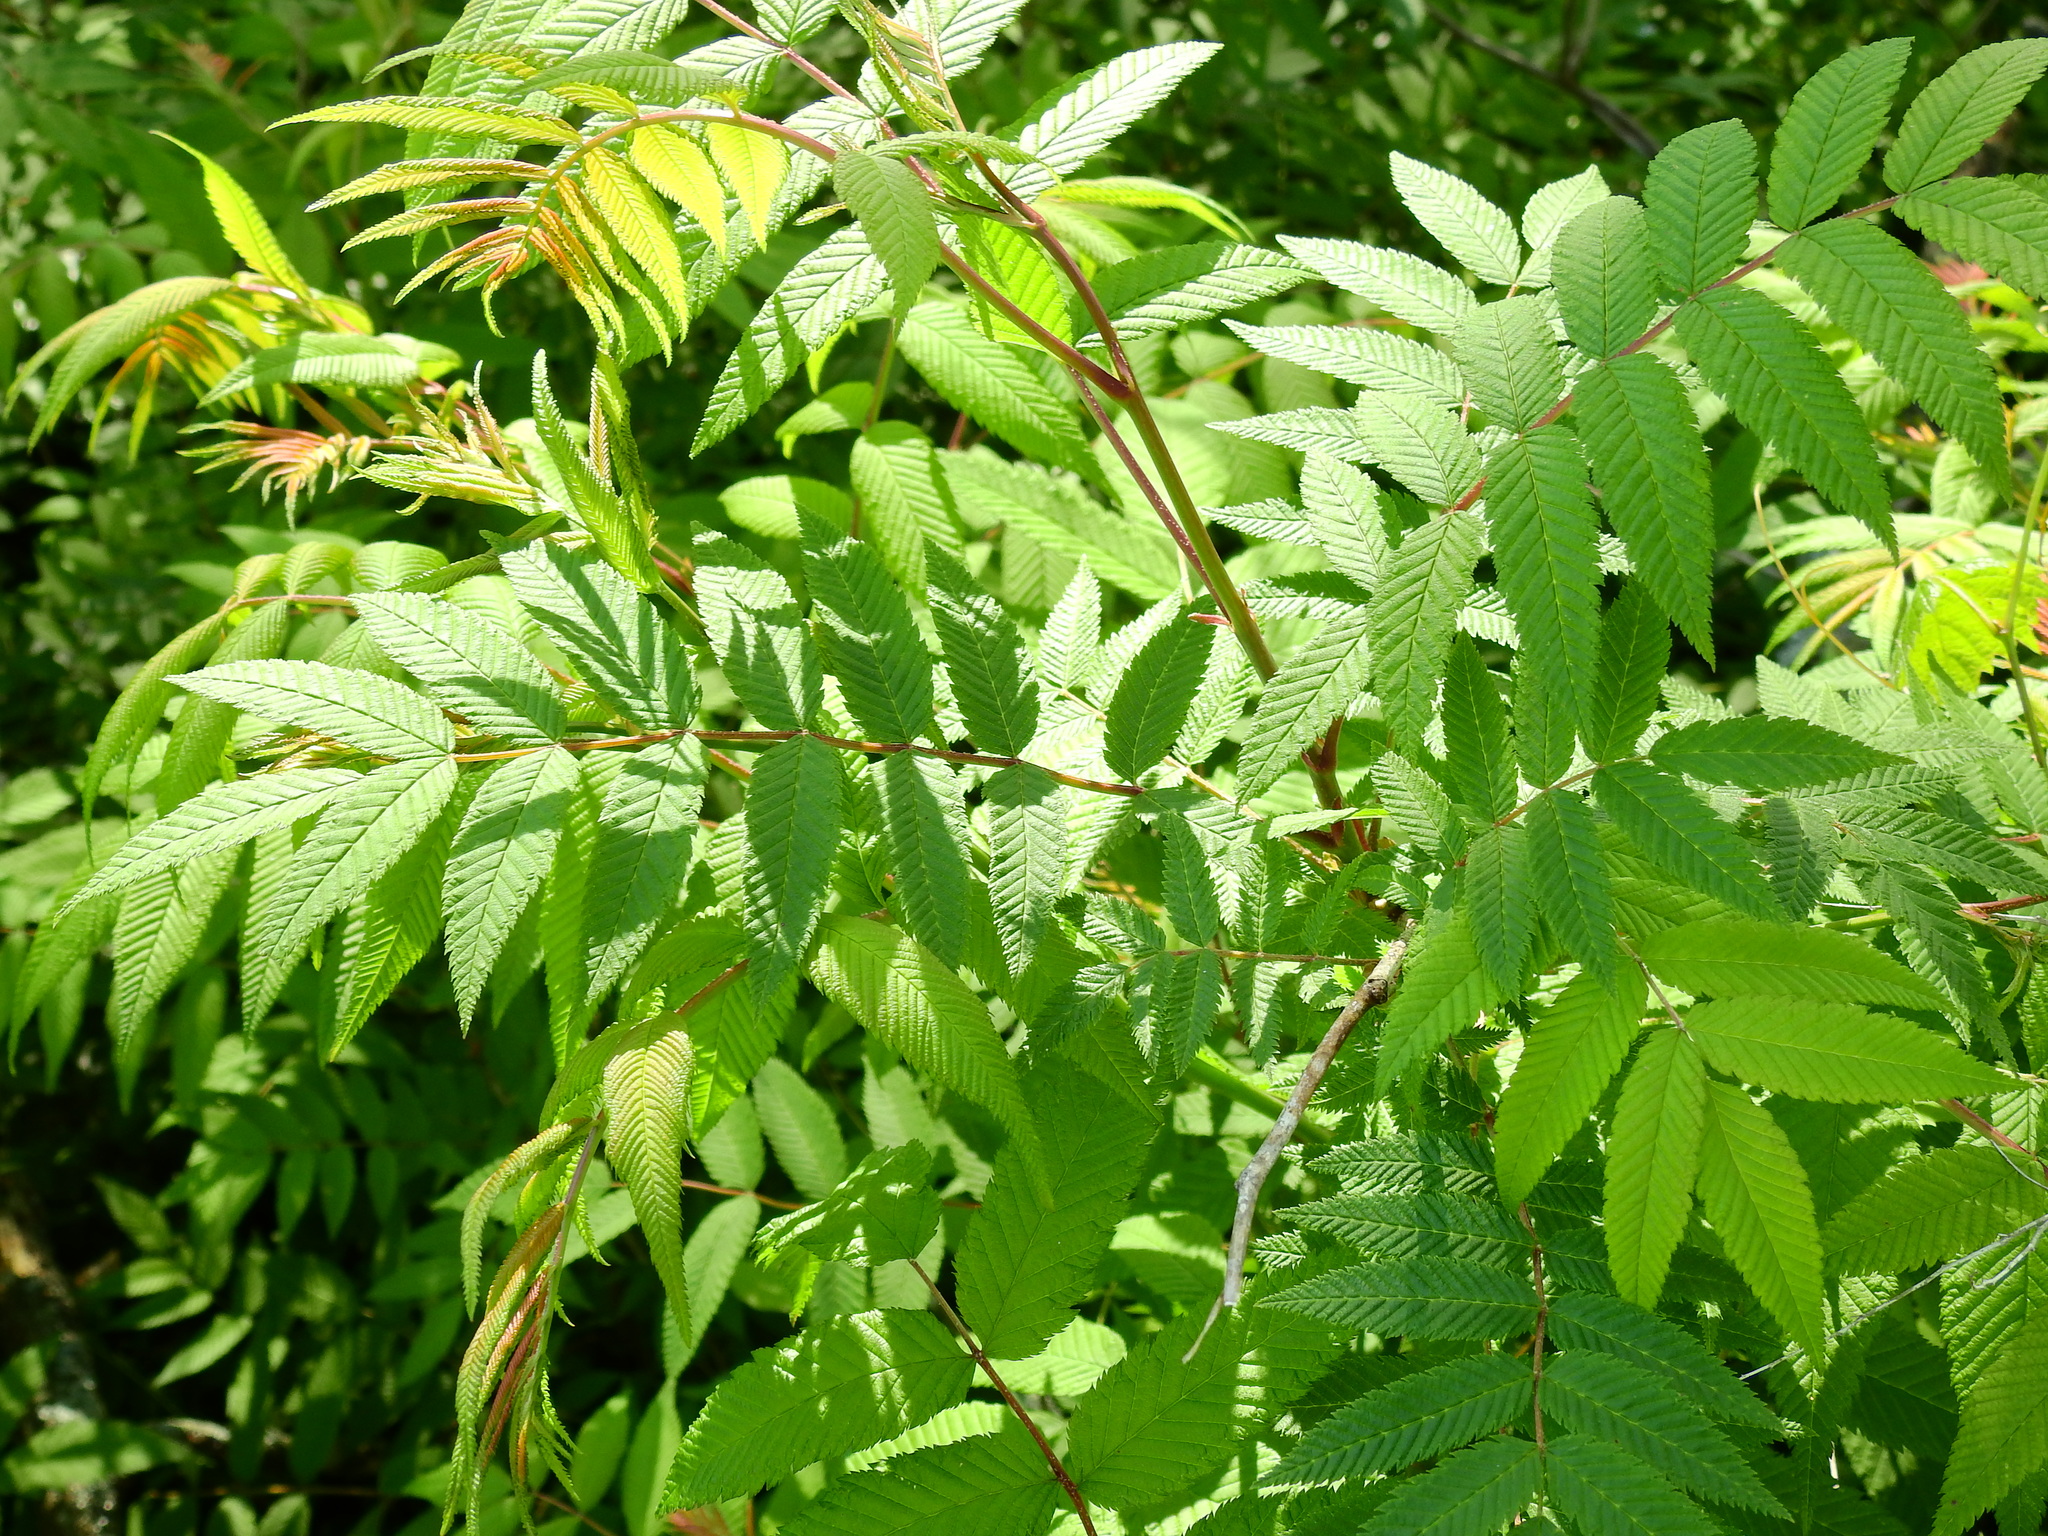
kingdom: Plantae
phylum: Tracheophyta
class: Magnoliopsida
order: Sapindales
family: Anacardiaceae
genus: Rhus
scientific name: Rhus typhina
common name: Staghorn sumac
